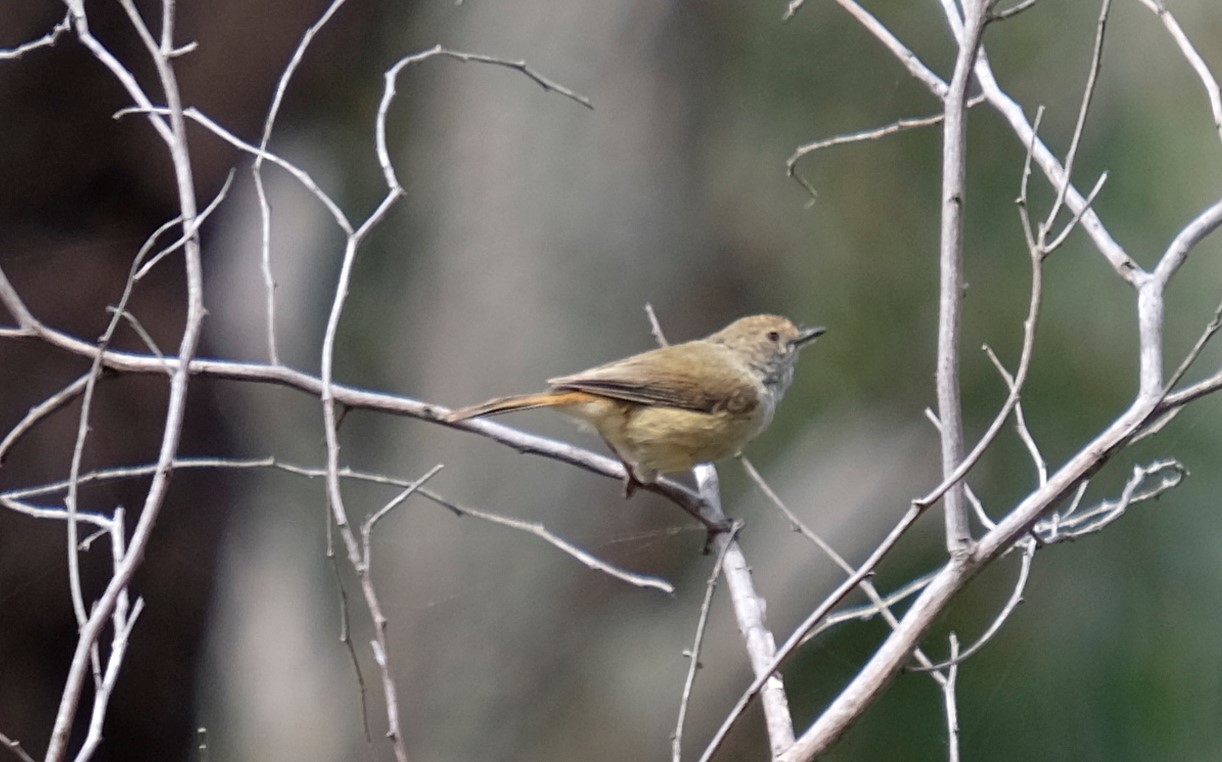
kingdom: Animalia
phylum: Chordata
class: Aves
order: Passeriformes
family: Acanthizidae
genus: Acanthiza
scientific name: Acanthiza pusilla
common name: Brown thornbill
